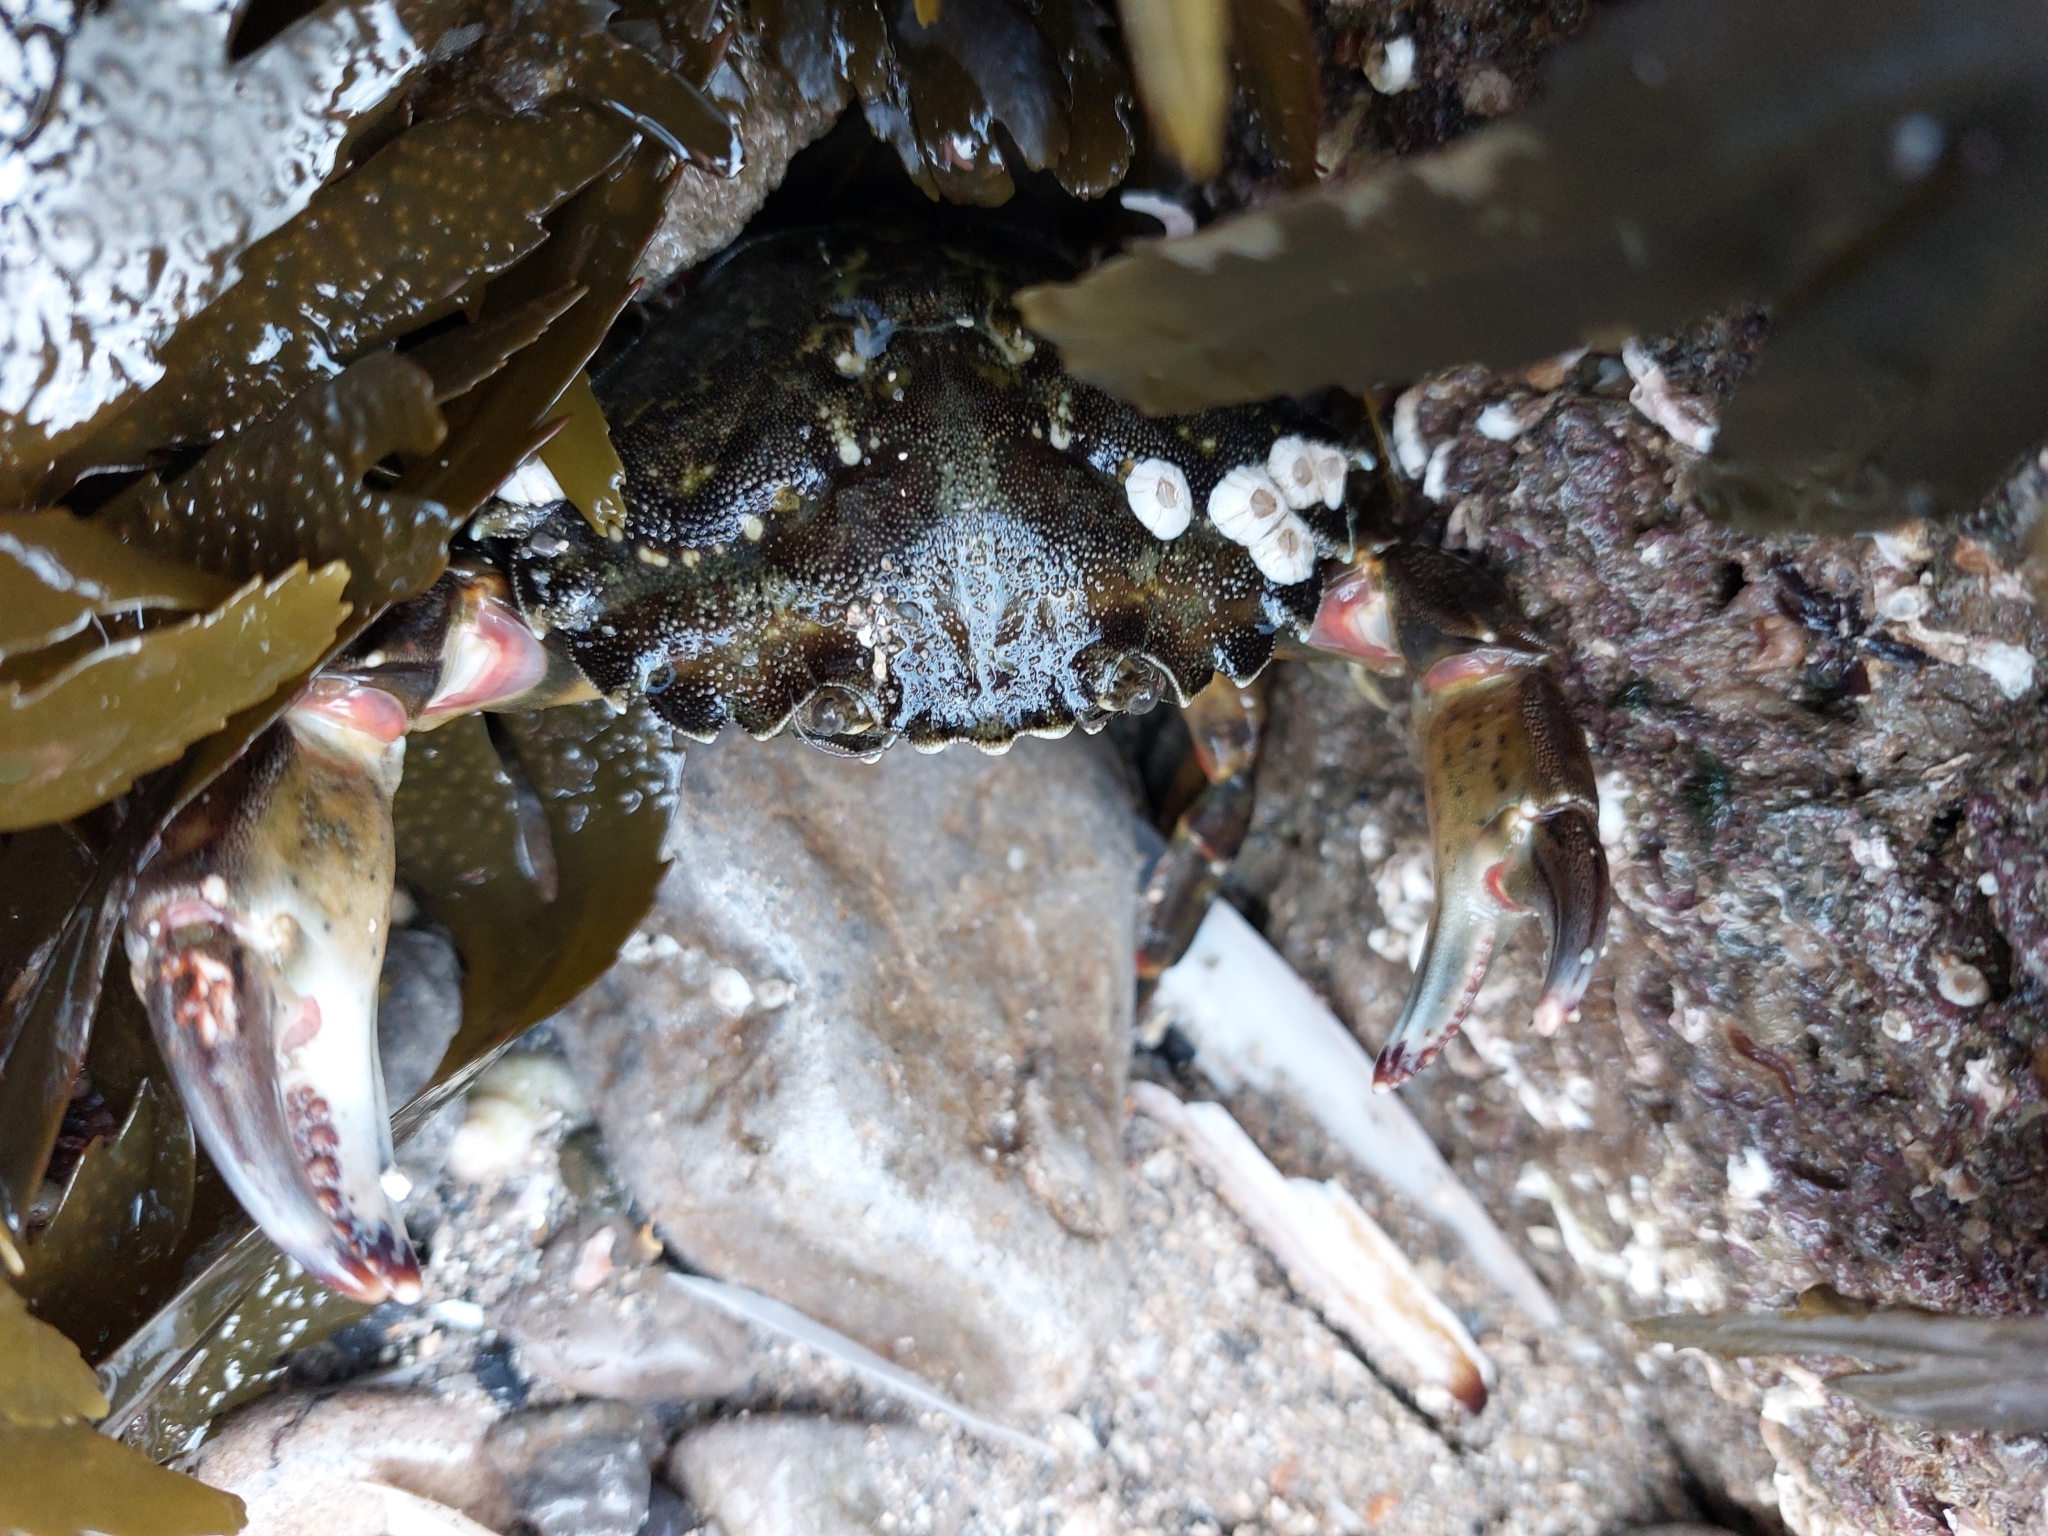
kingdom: Animalia
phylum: Arthropoda
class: Malacostraca
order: Decapoda
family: Carcinidae
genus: Carcinus
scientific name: Carcinus maenas
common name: European green crab
